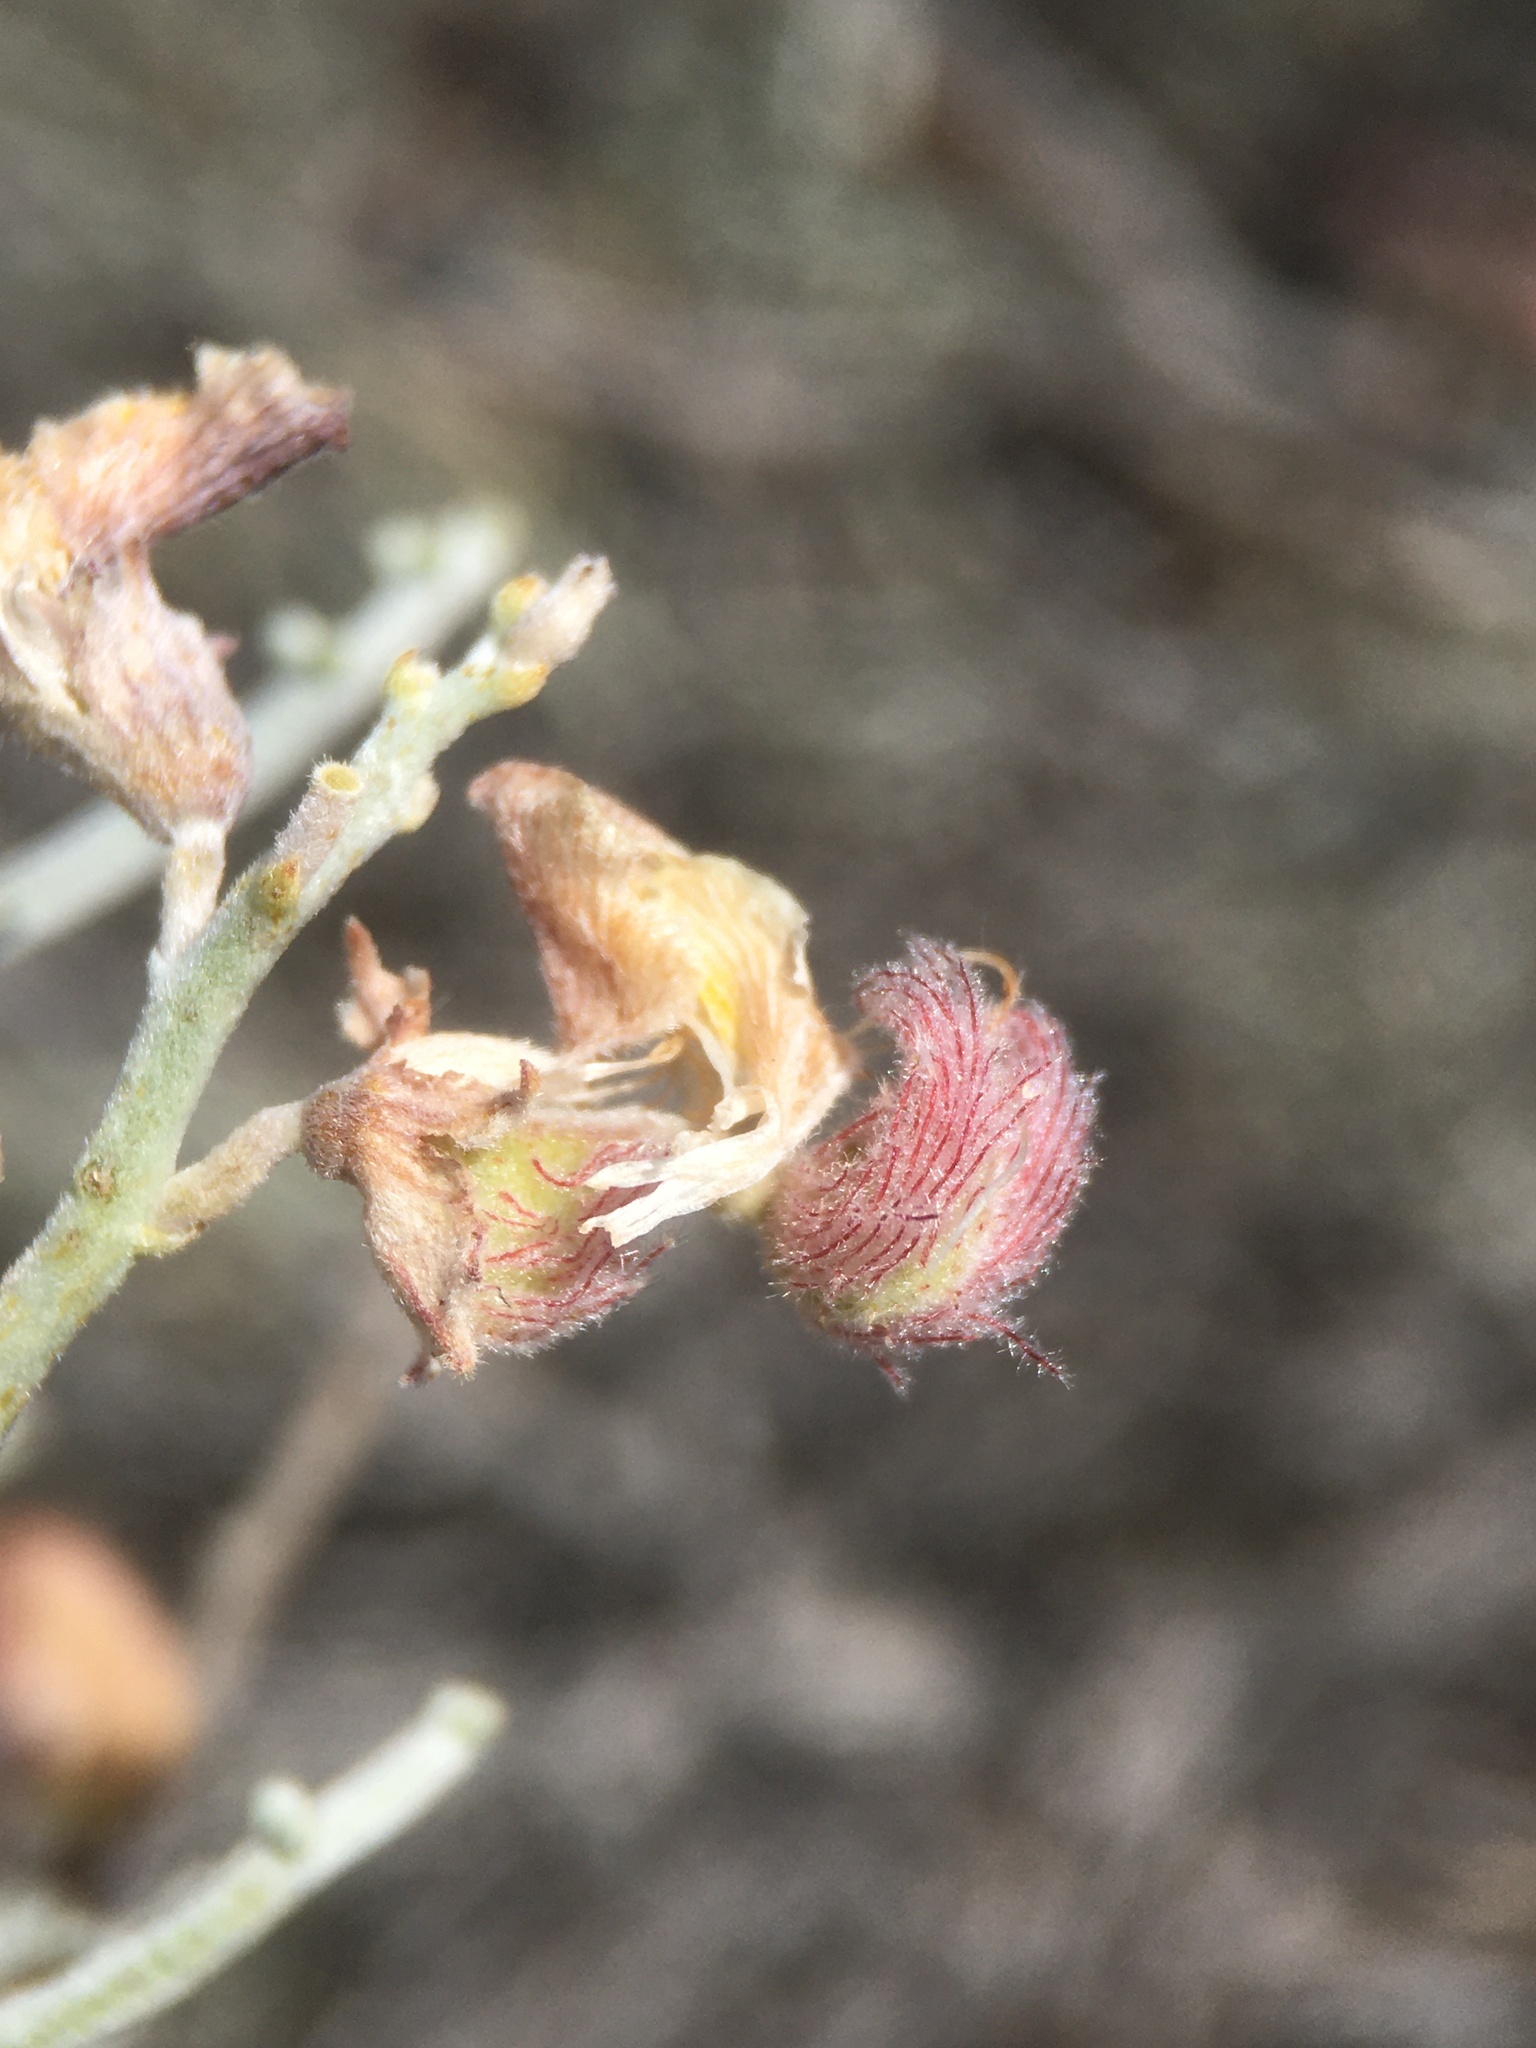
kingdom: Plantae
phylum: Tracheophyta
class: Magnoliopsida
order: Fabales
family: Fabaceae
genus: Adesmia
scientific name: Adesmia argentea
